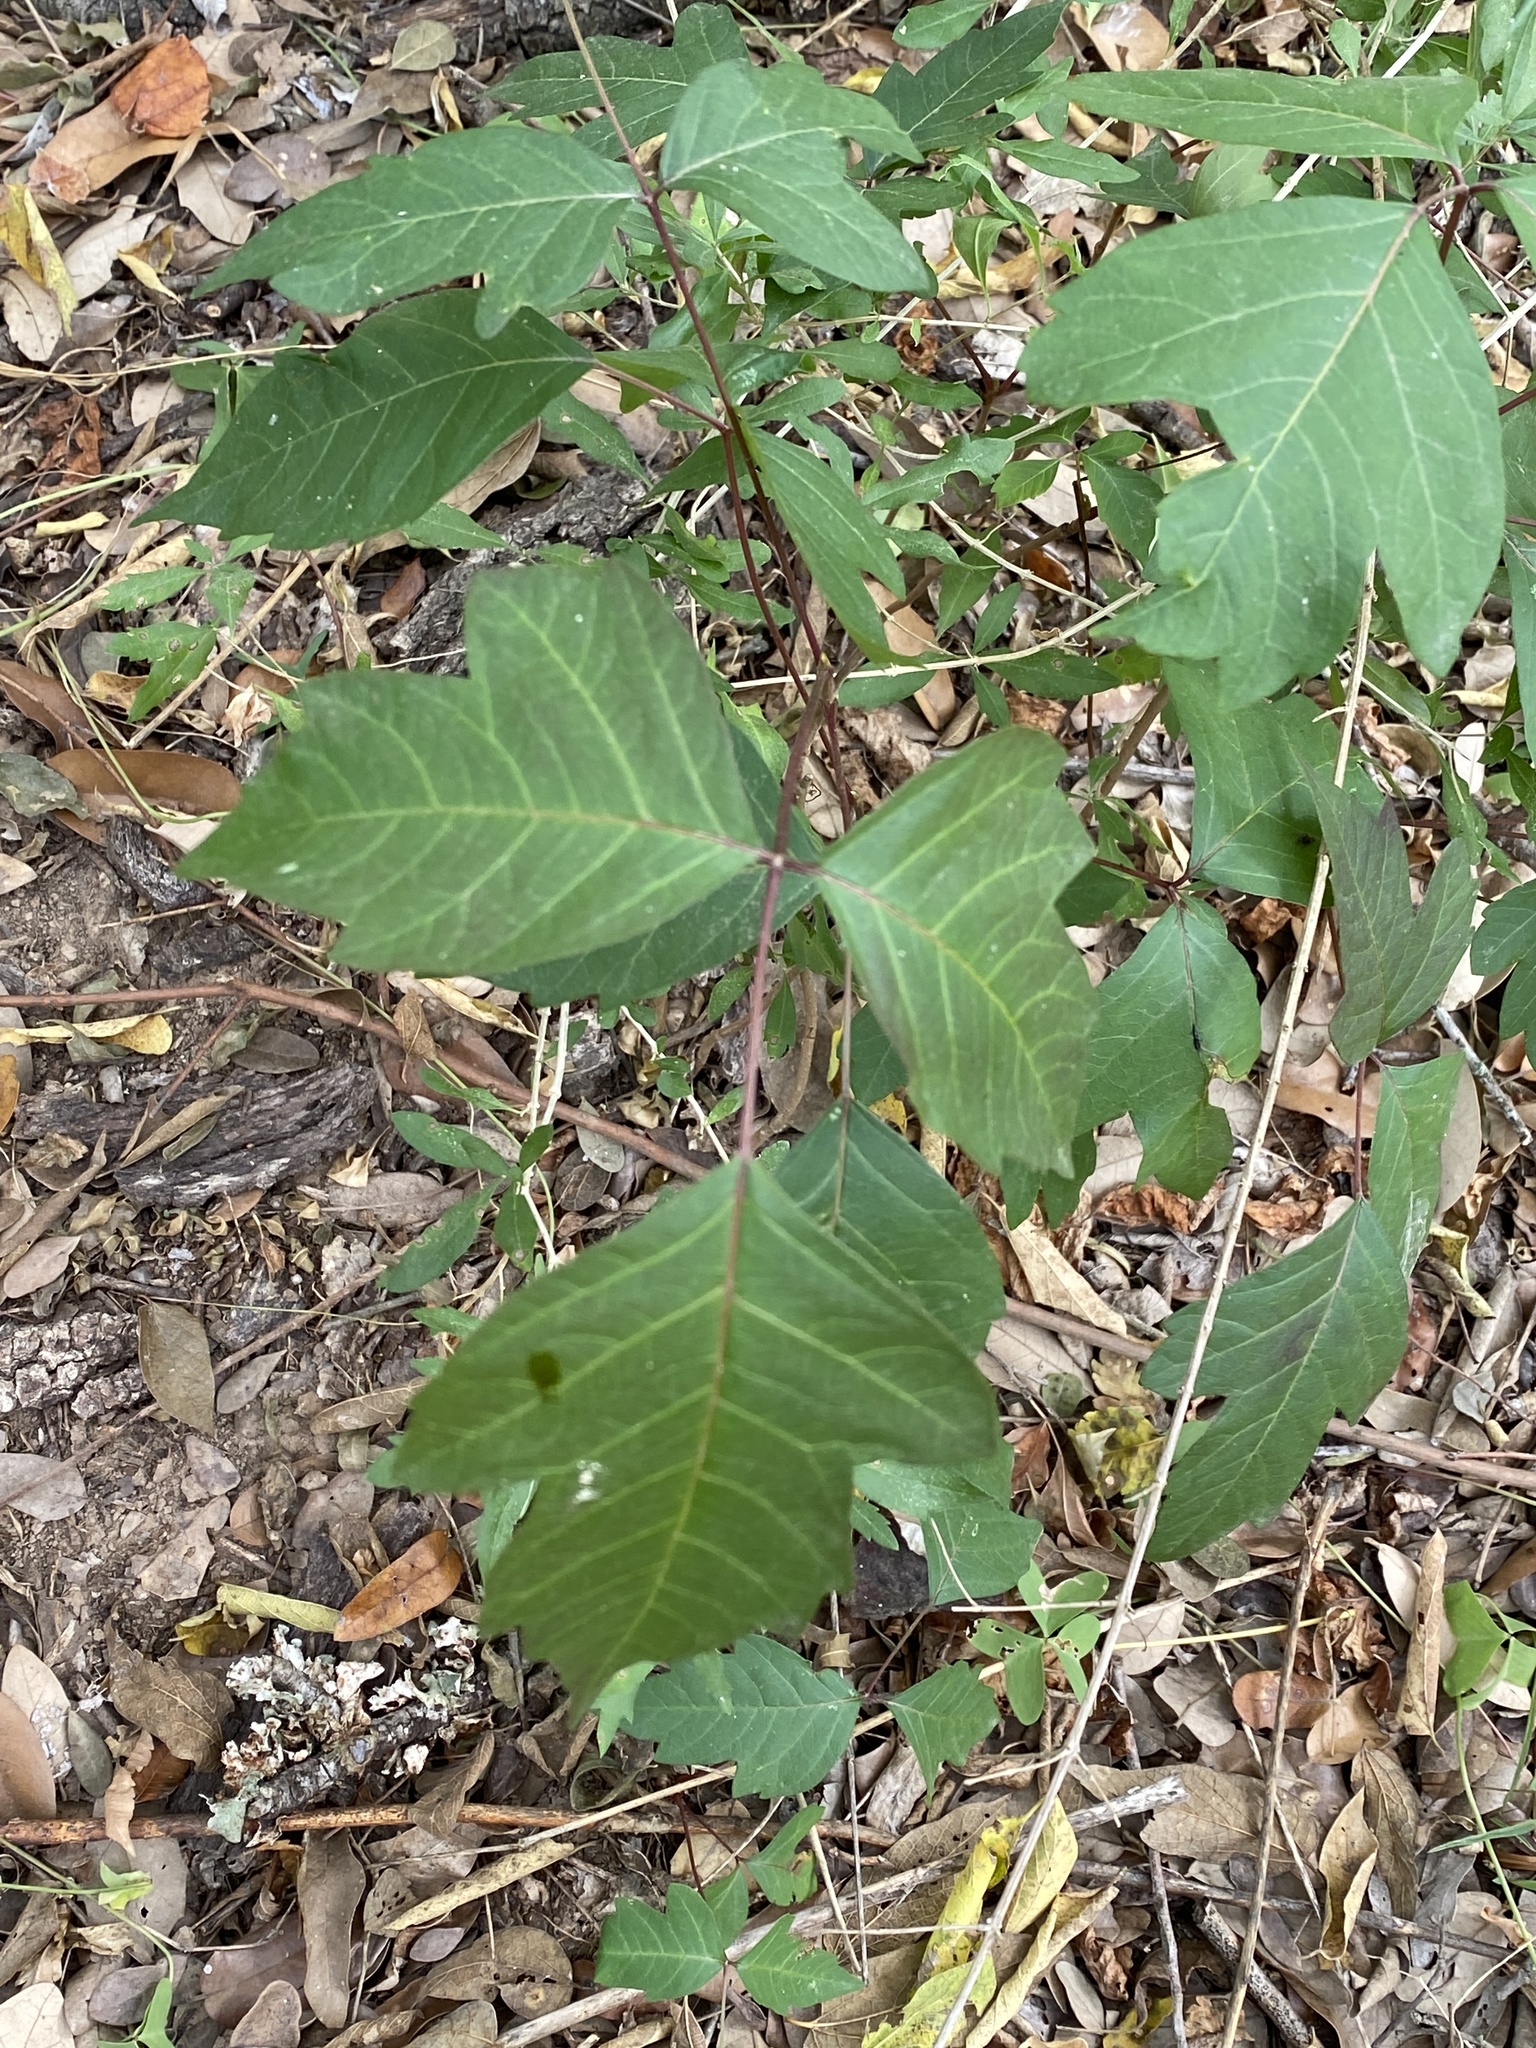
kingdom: Plantae
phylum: Tracheophyta
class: Magnoliopsida
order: Sapindales
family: Anacardiaceae
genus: Toxicodendron
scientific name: Toxicodendron radicans
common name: Poison ivy
